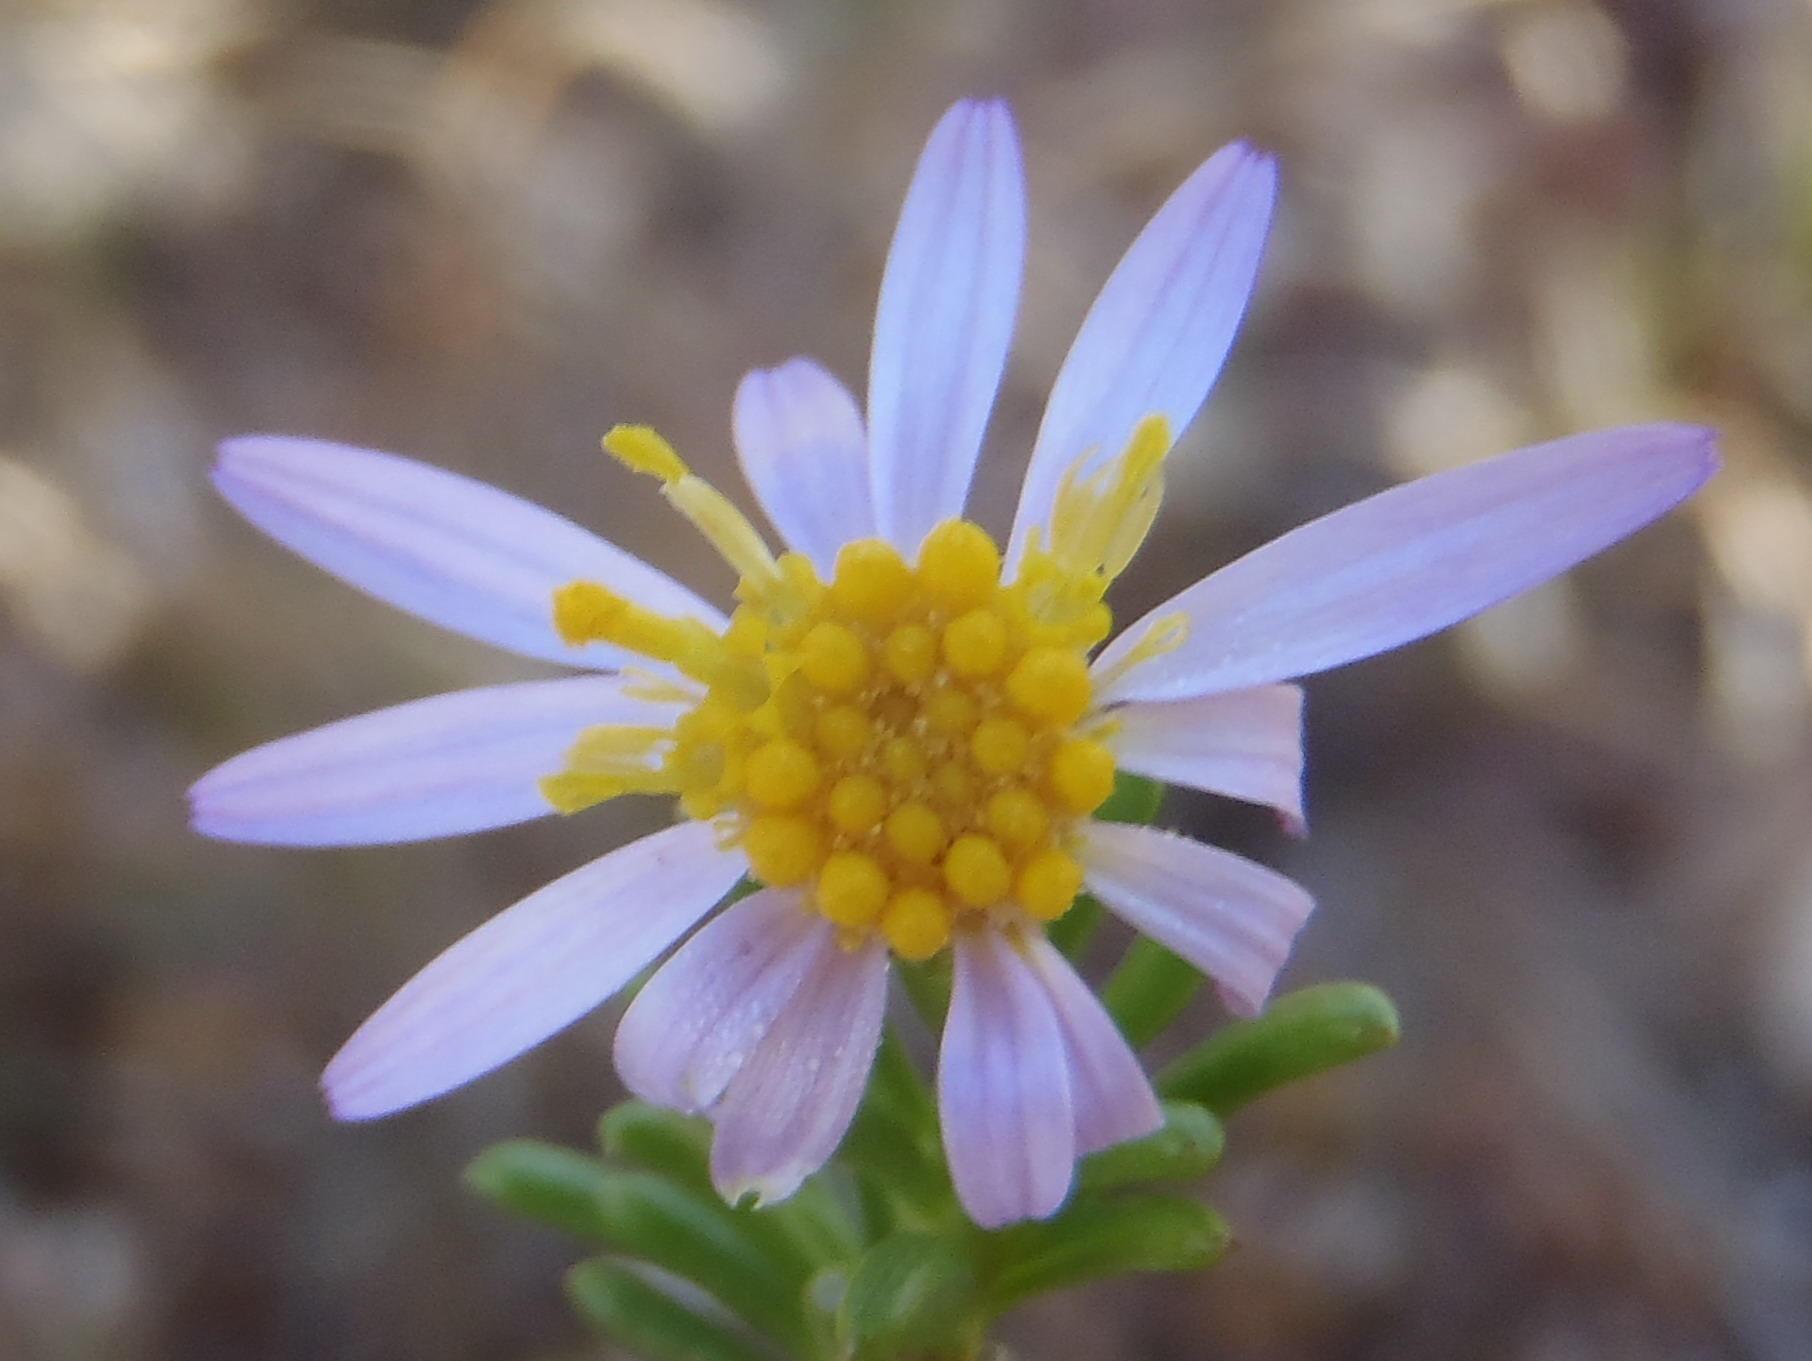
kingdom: Plantae
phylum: Tracheophyta
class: Magnoliopsida
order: Asterales
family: Asteraceae
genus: Felicia
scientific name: Felicia filifolia
